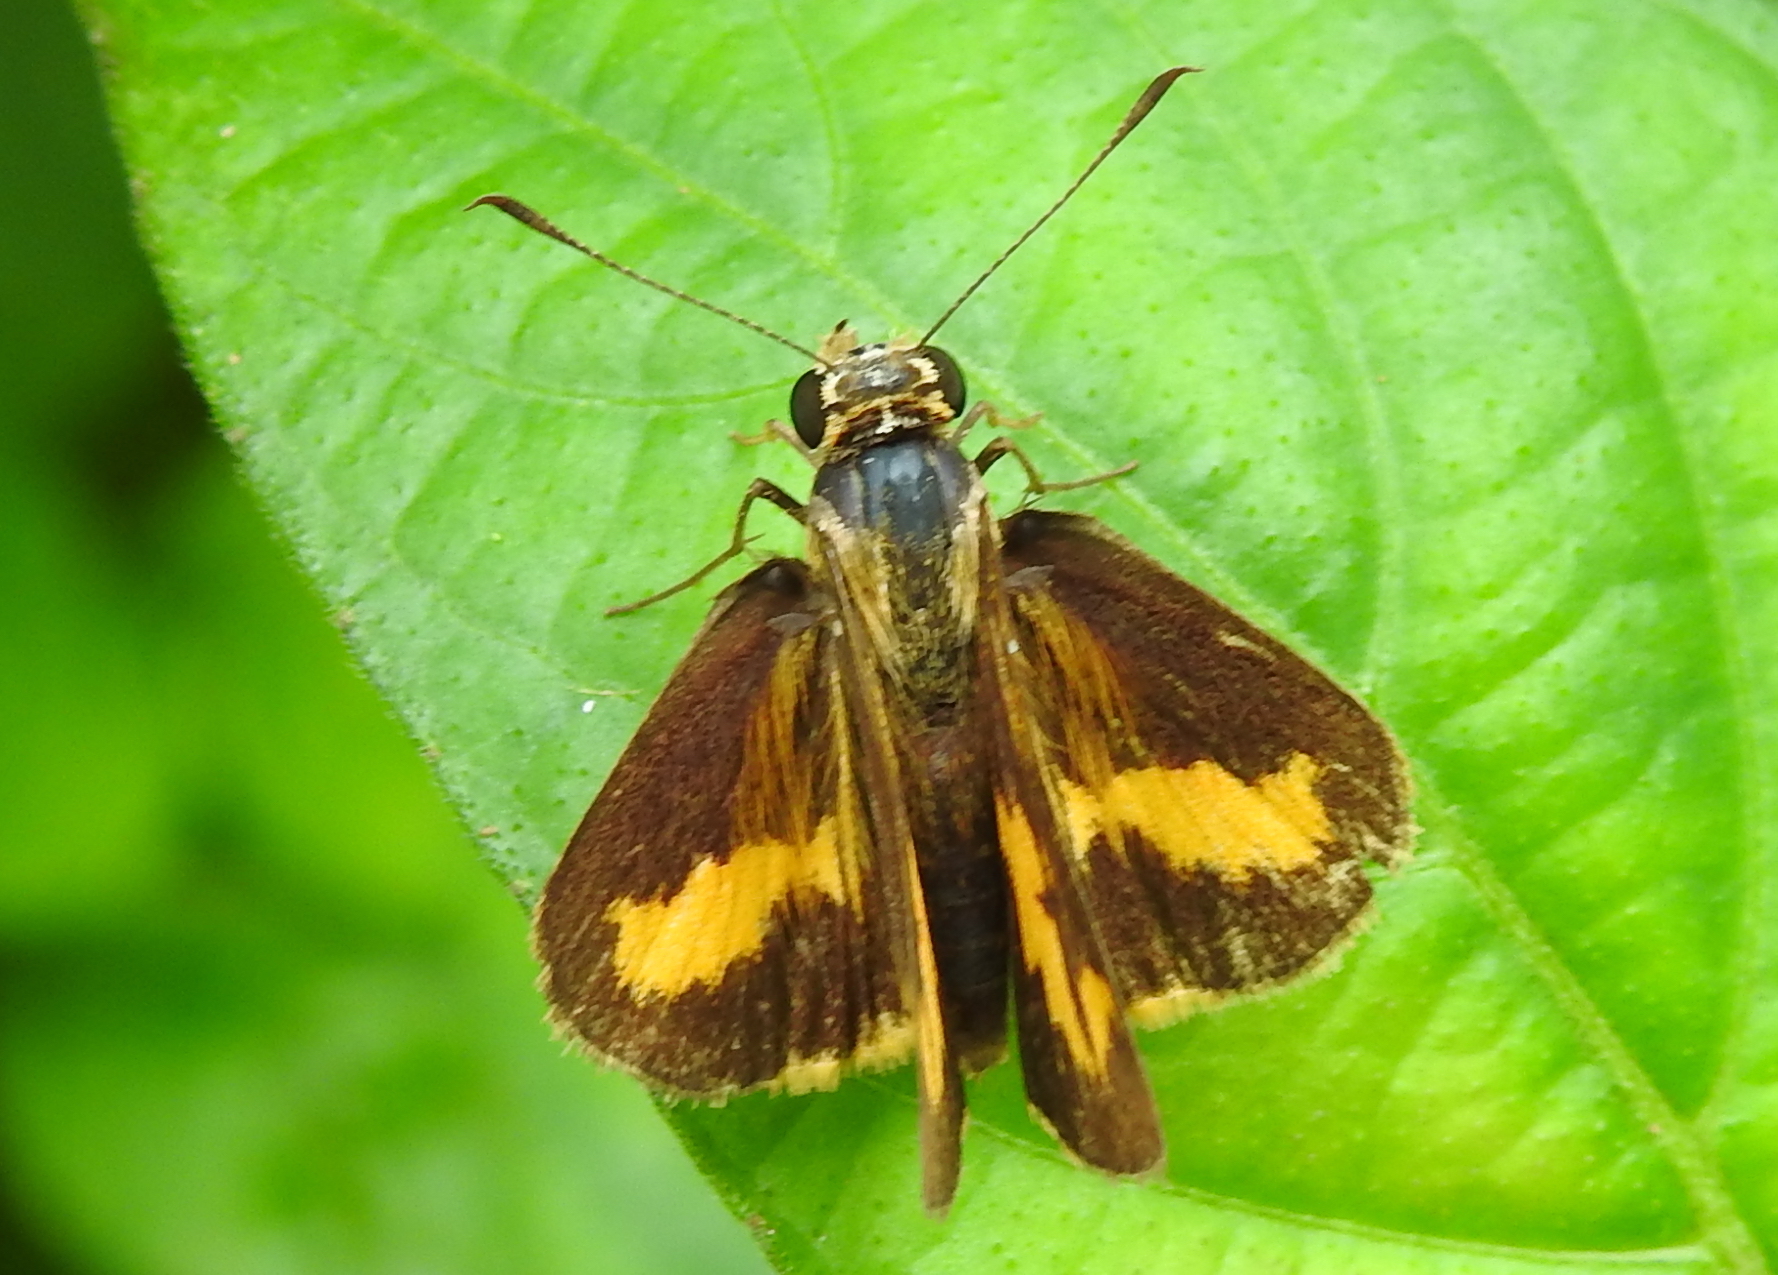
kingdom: Animalia
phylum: Arthropoda
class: Insecta
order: Lepidoptera
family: Hesperiidae
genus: Oriens
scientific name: Oriens gola
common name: Common dartlet
